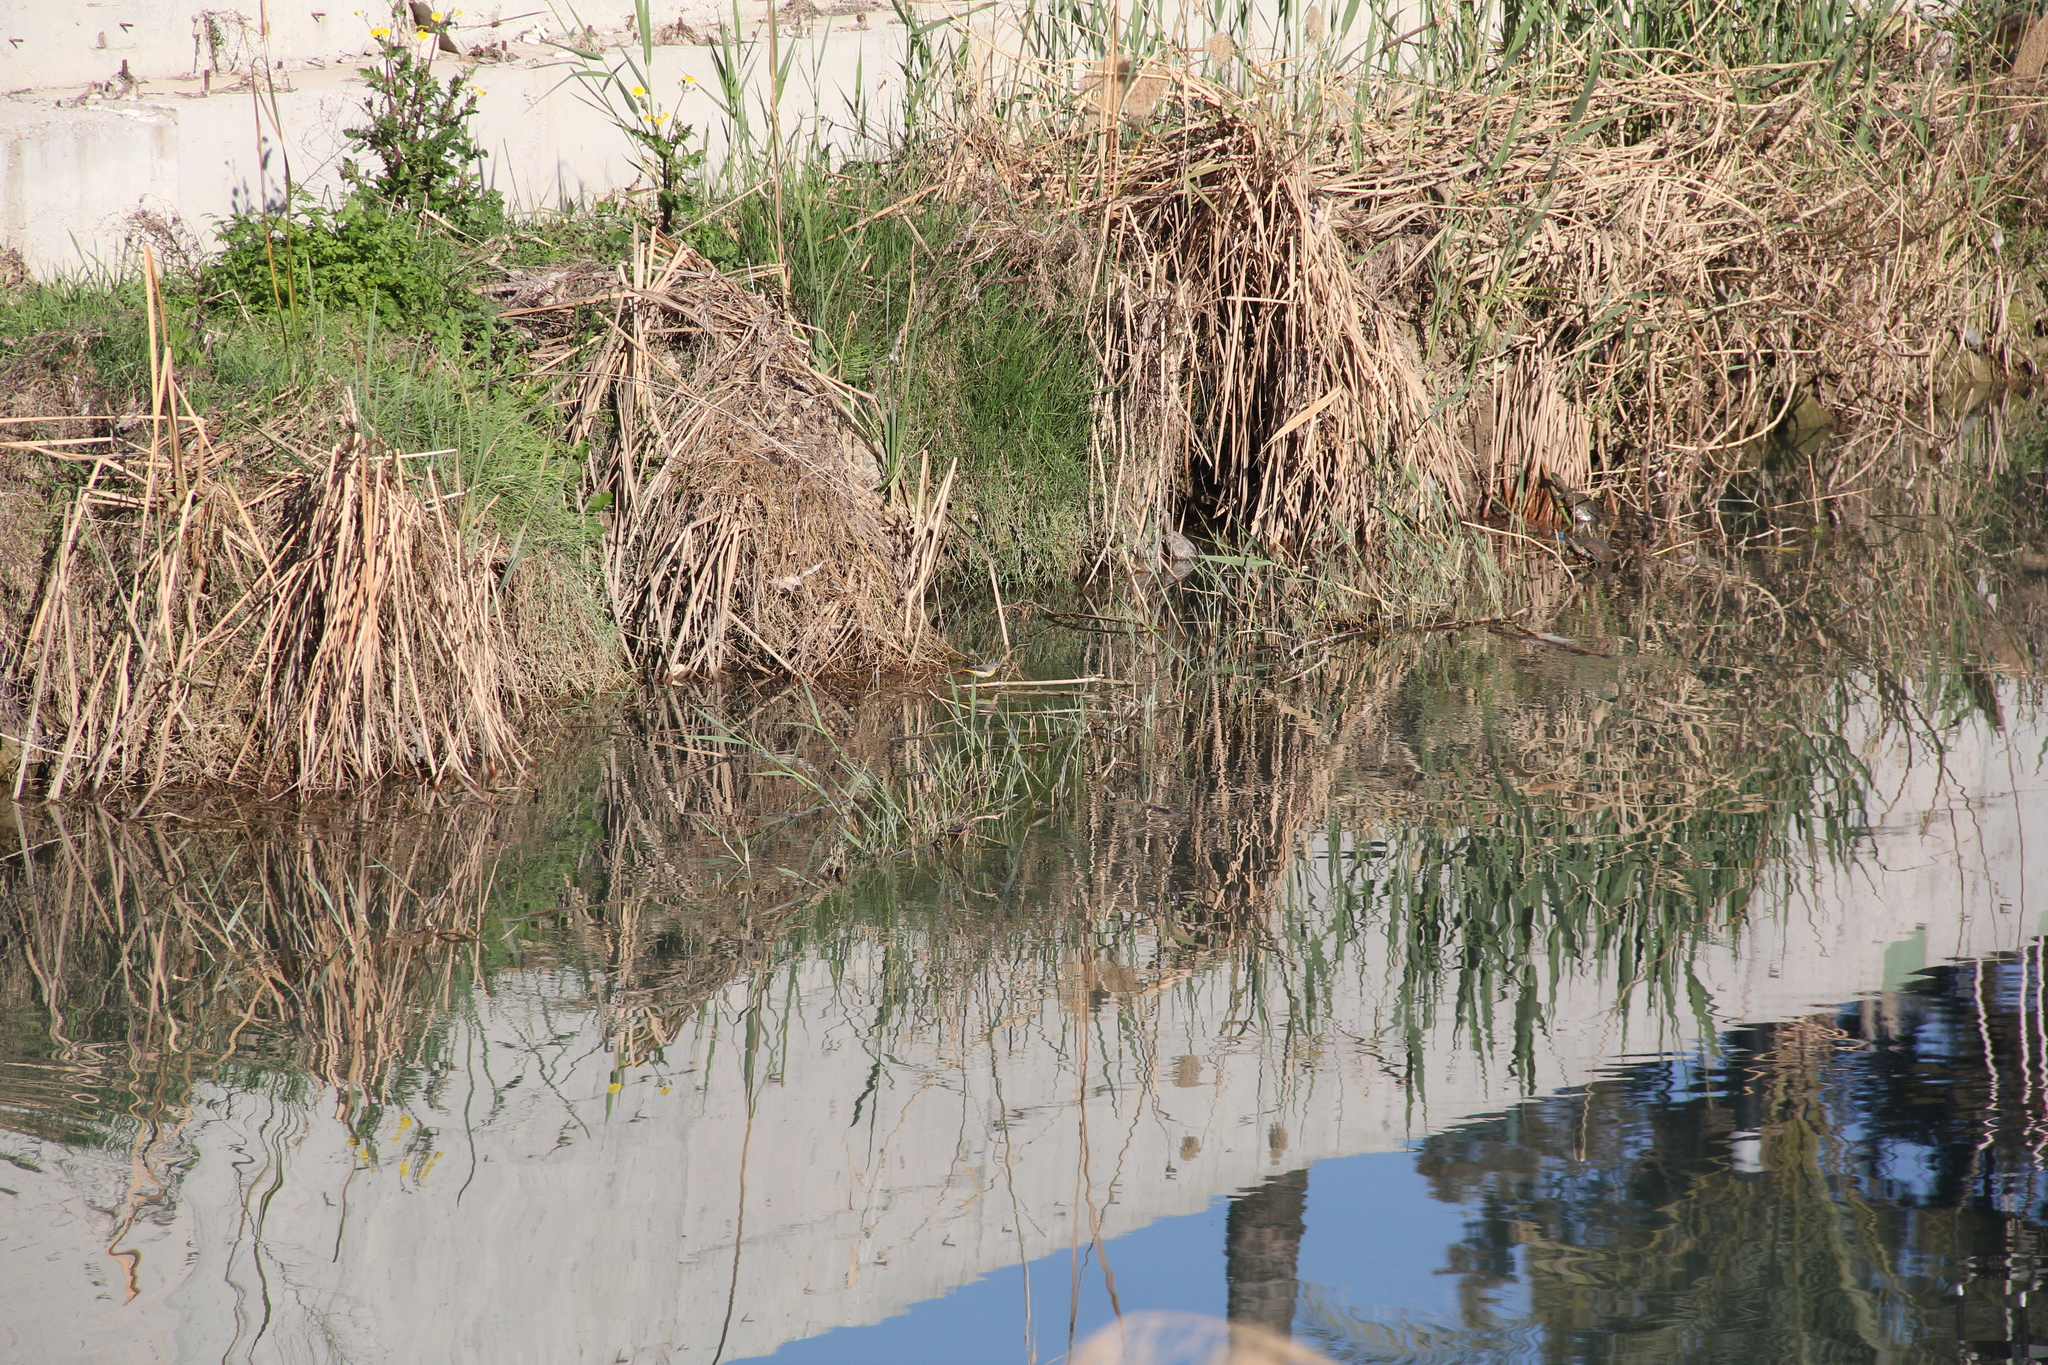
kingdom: Animalia
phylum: Chordata
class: Aves
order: Passeriformes
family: Motacillidae
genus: Motacilla
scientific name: Motacilla cinerea
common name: Grey wagtail
